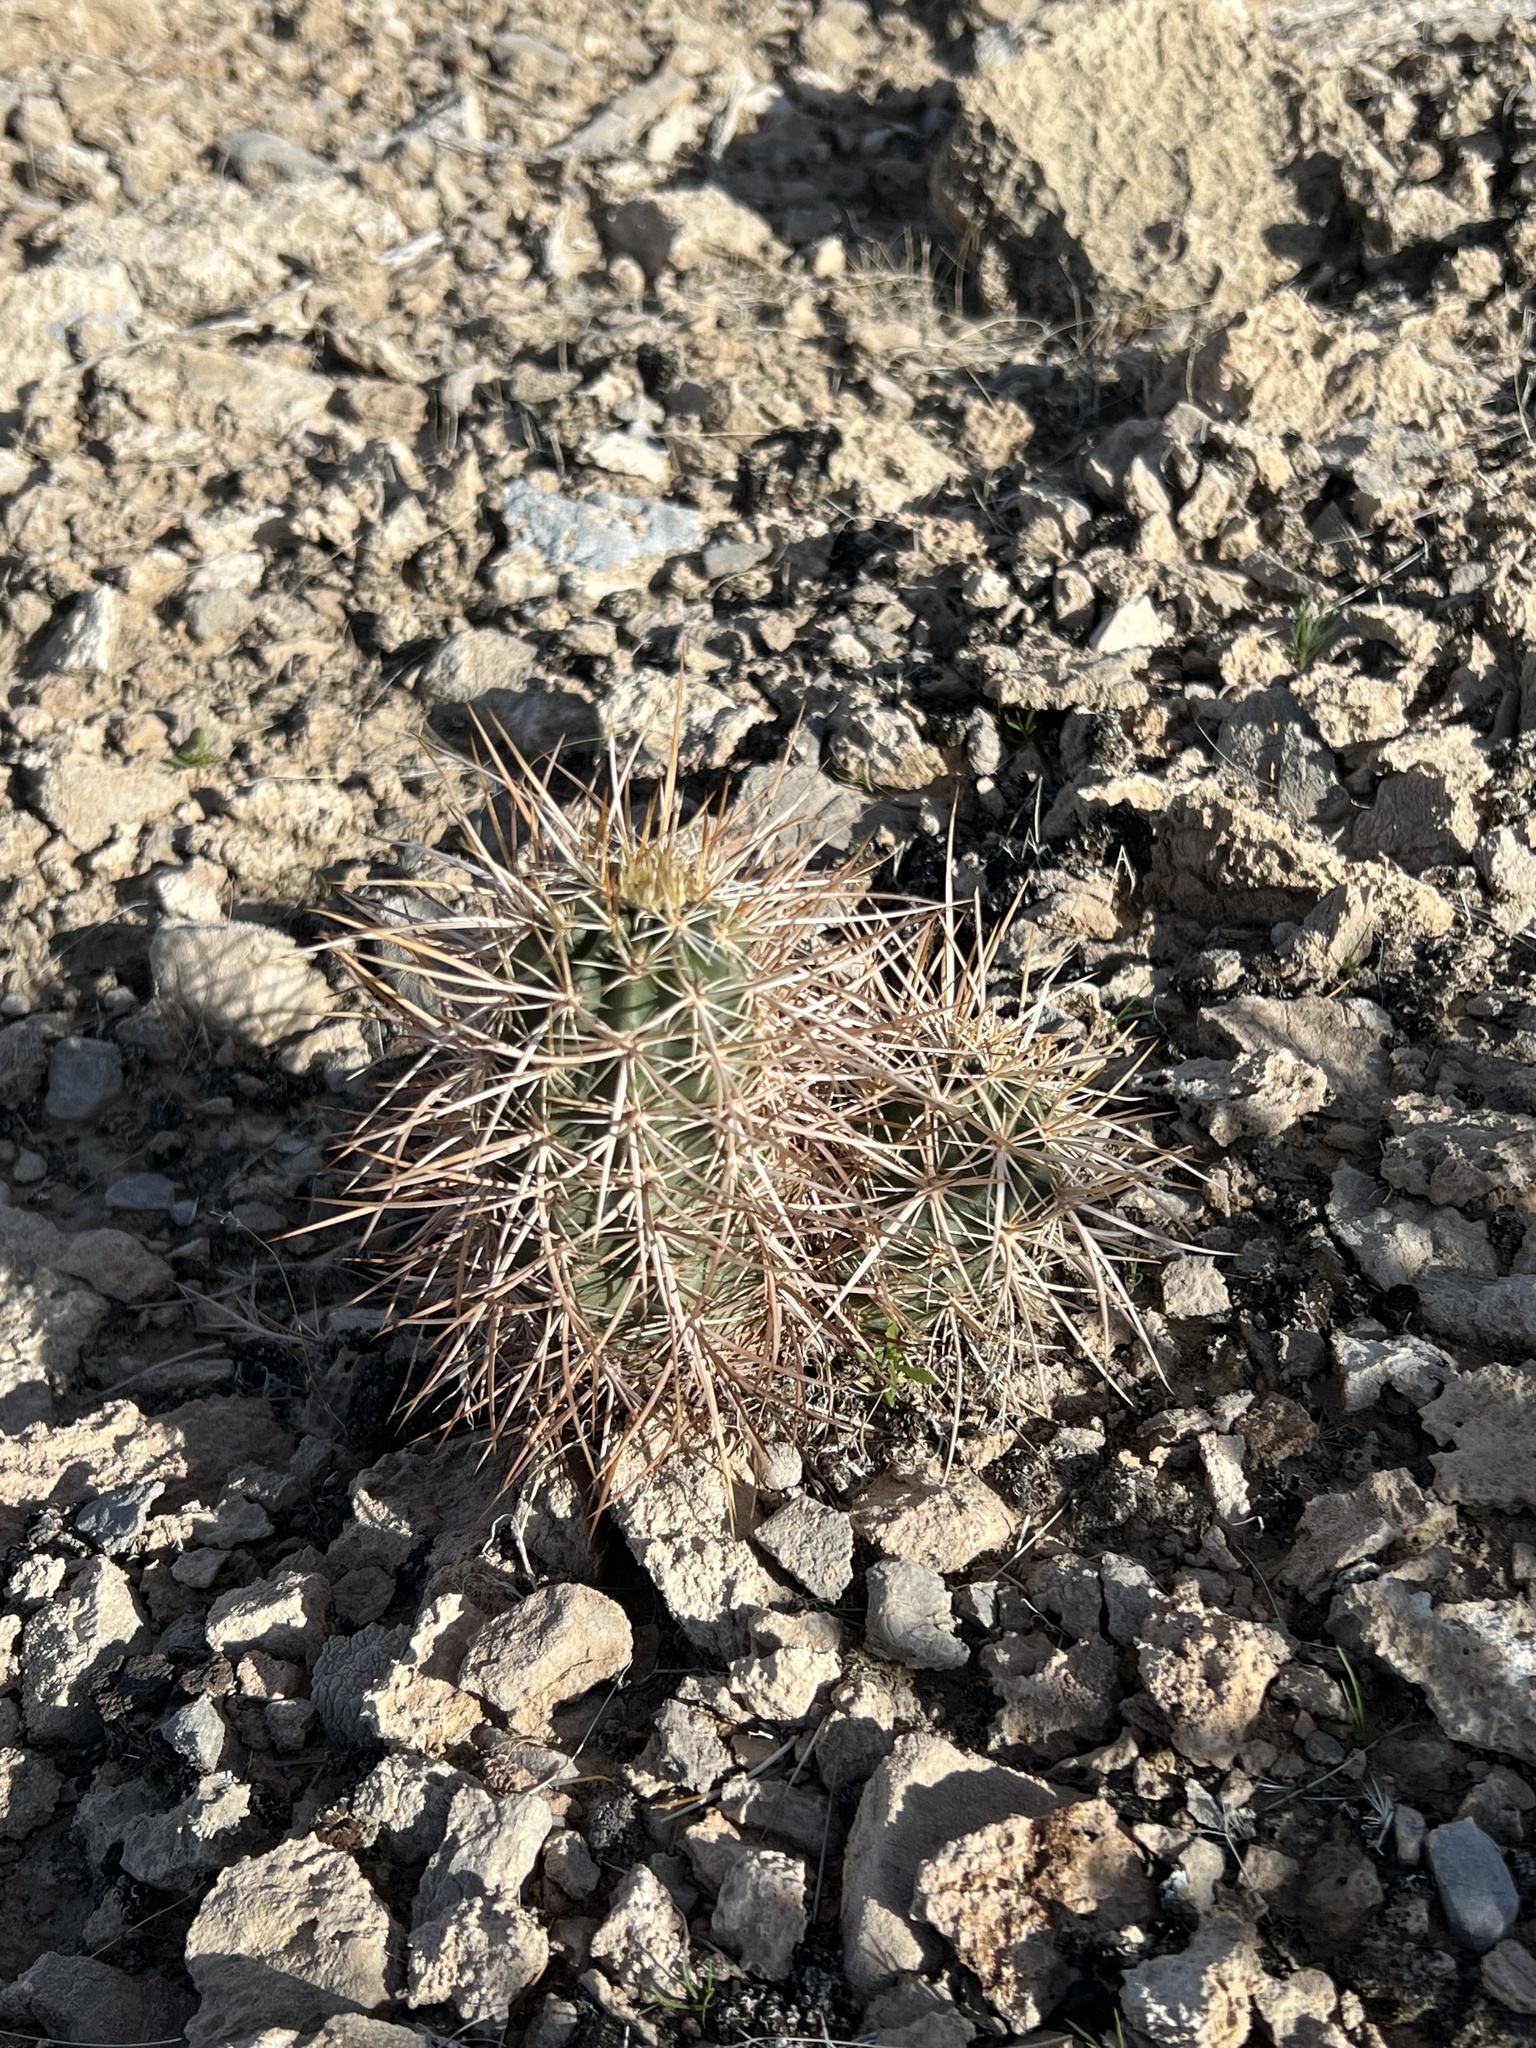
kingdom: Plantae
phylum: Tracheophyta
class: Magnoliopsida
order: Caryophyllales
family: Cactaceae
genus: Echinocereus
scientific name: Echinocereus engelmannii
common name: Engelmann's hedgehog cactus
